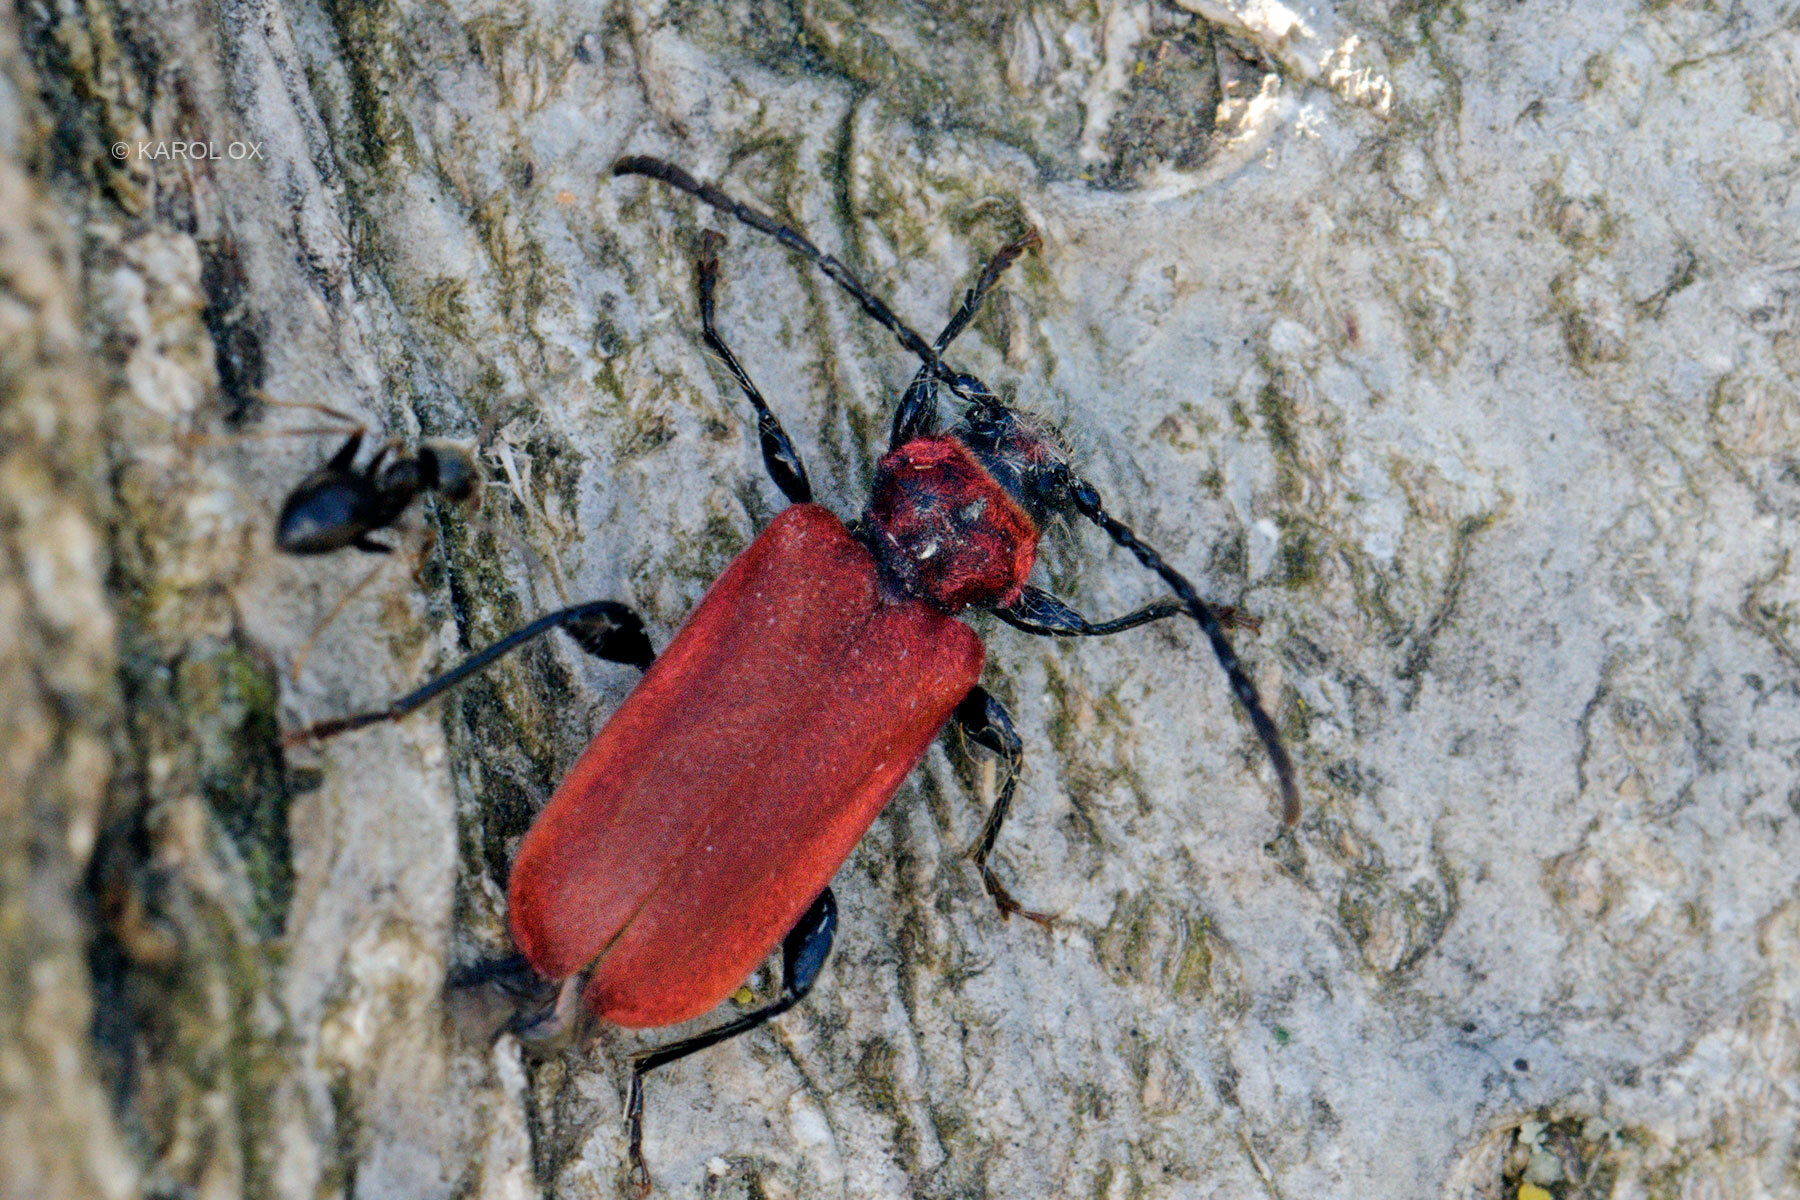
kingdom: Animalia
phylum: Arthropoda
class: Insecta
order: Coleoptera
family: Cerambycidae
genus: Pyrrhidium
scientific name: Pyrrhidium sanguineum
